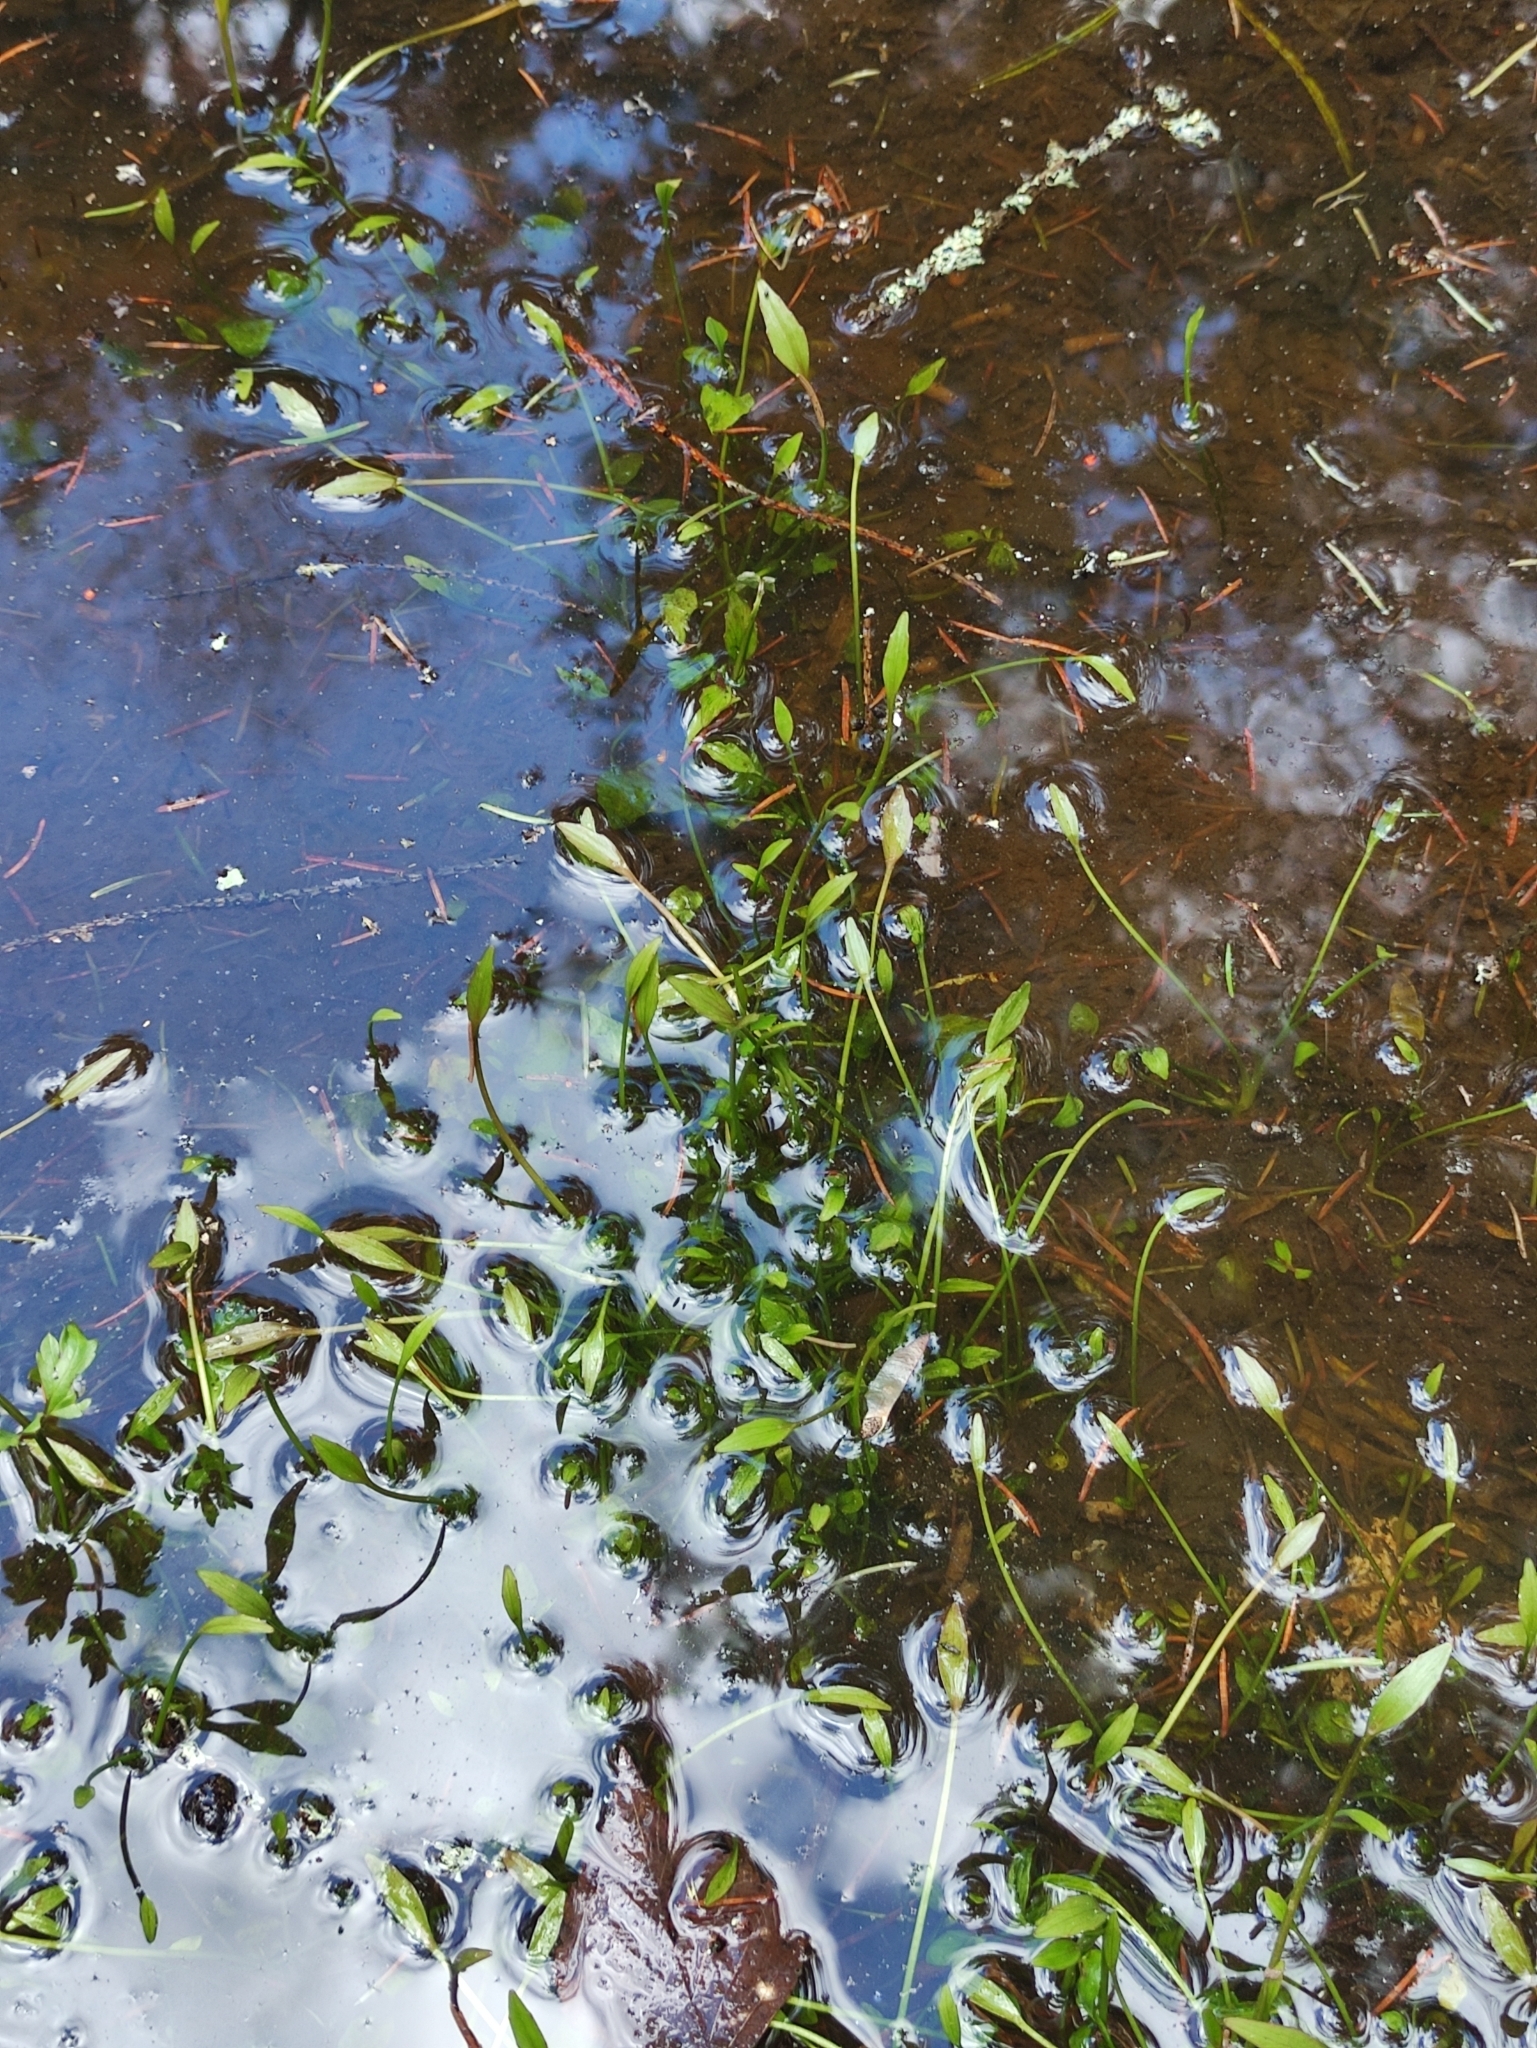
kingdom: Plantae
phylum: Tracheophyta
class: Magnoliopsida
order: Ranunculales
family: Ranunculaceae
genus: Ranunculus
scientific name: Ranunculus flammula
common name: Lesser spearwort
